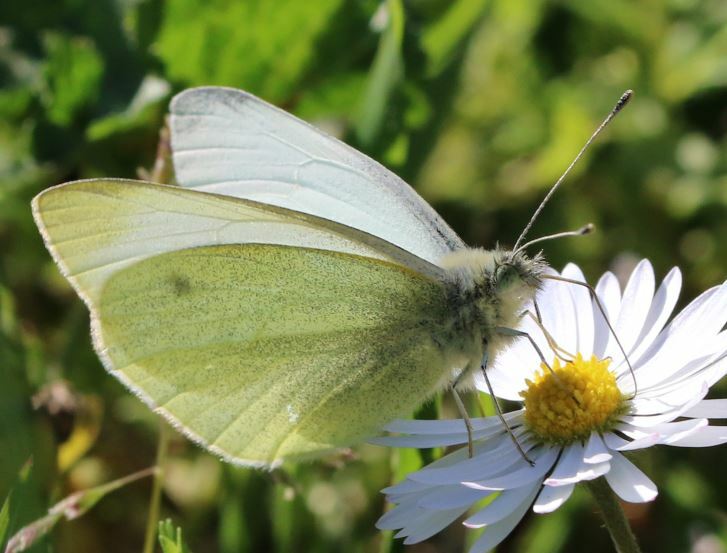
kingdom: Animalia
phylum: Arthropoda
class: Insecta
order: Lepidoptera
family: Pieridae
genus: Pieris
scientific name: Pieris rapae
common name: Small white
